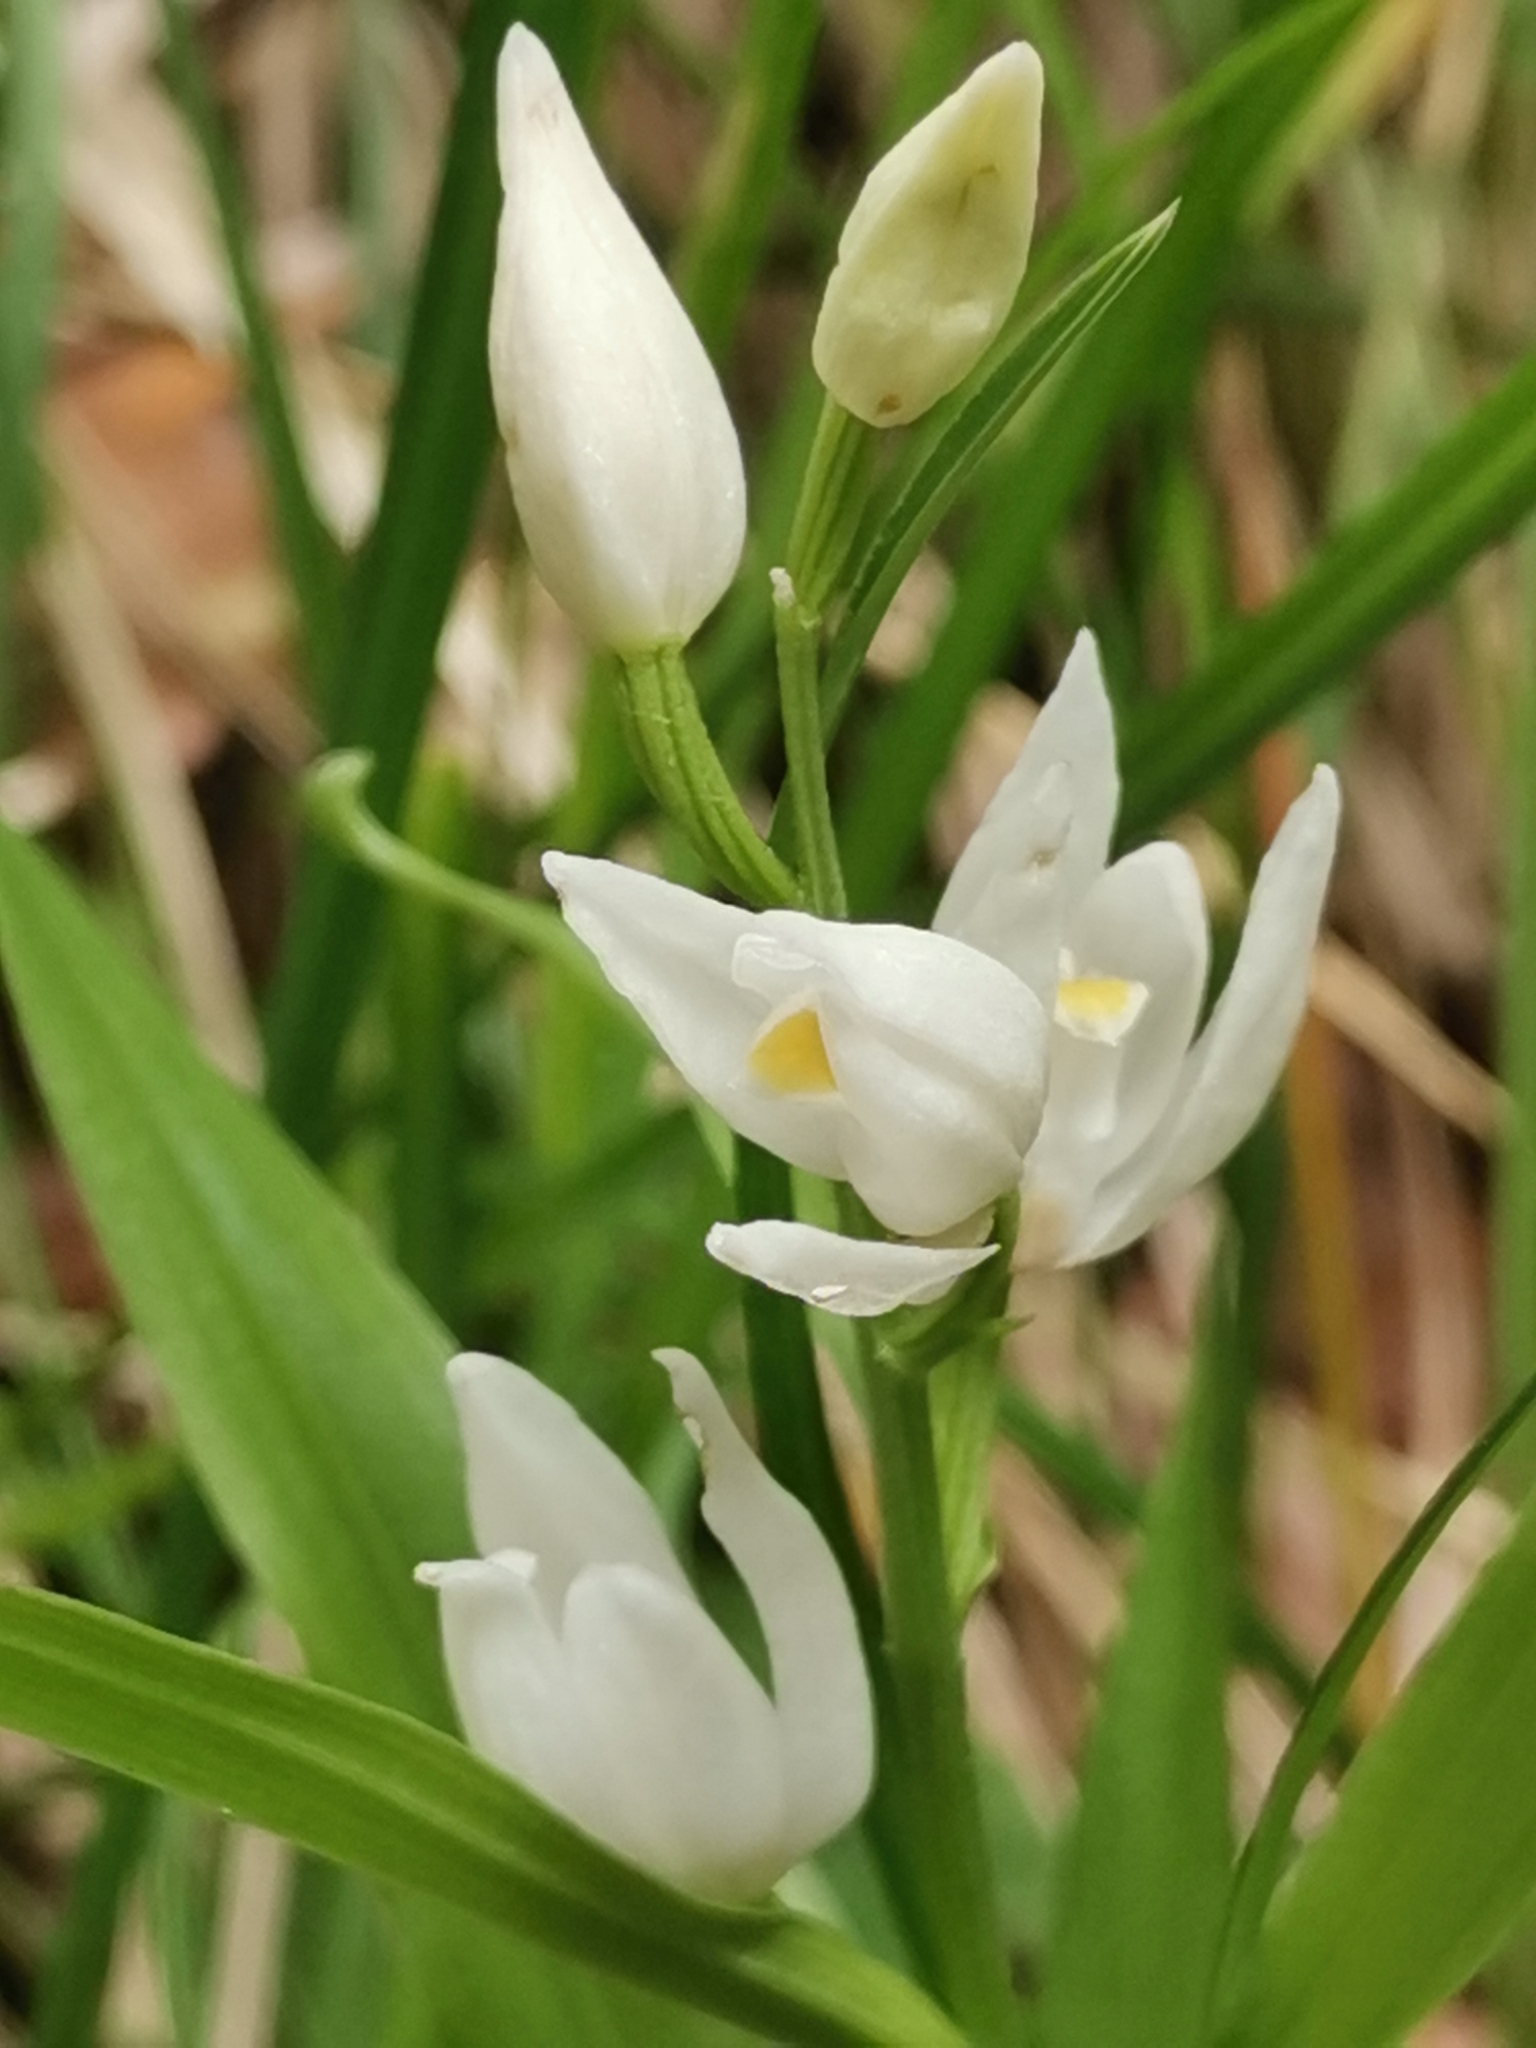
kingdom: Plantae
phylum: Tracheophyta
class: Liliopsida
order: Asparagales
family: Orchidaceae
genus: Cephalanthera
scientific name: Cephalanthera longifolia
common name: Narrow-leaved helleborine
